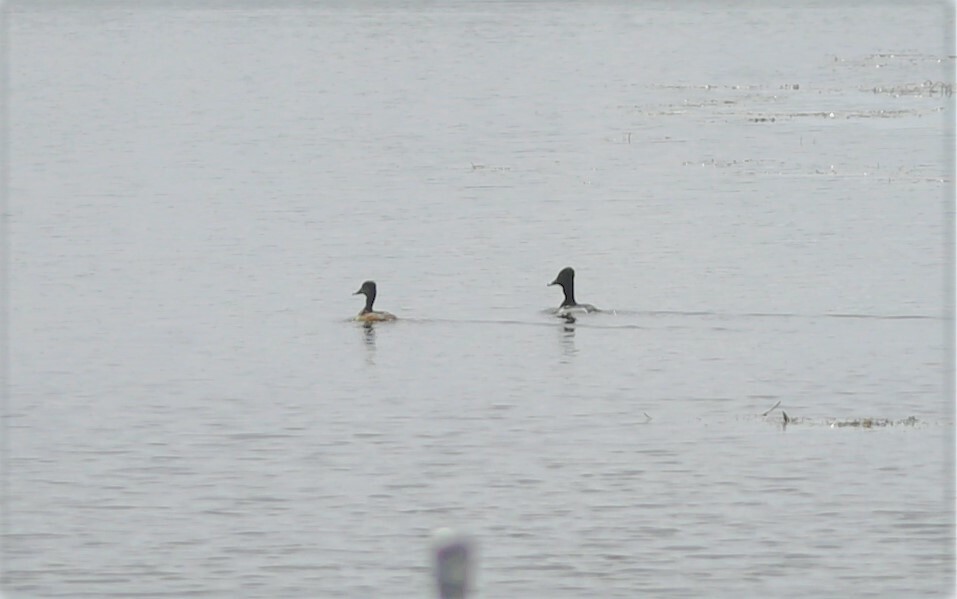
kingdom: Animalia
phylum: Chordata
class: Aves
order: Anseriformes
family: Anatidae
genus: Aythya
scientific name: Aythya collaris
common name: Ring-necked duck
